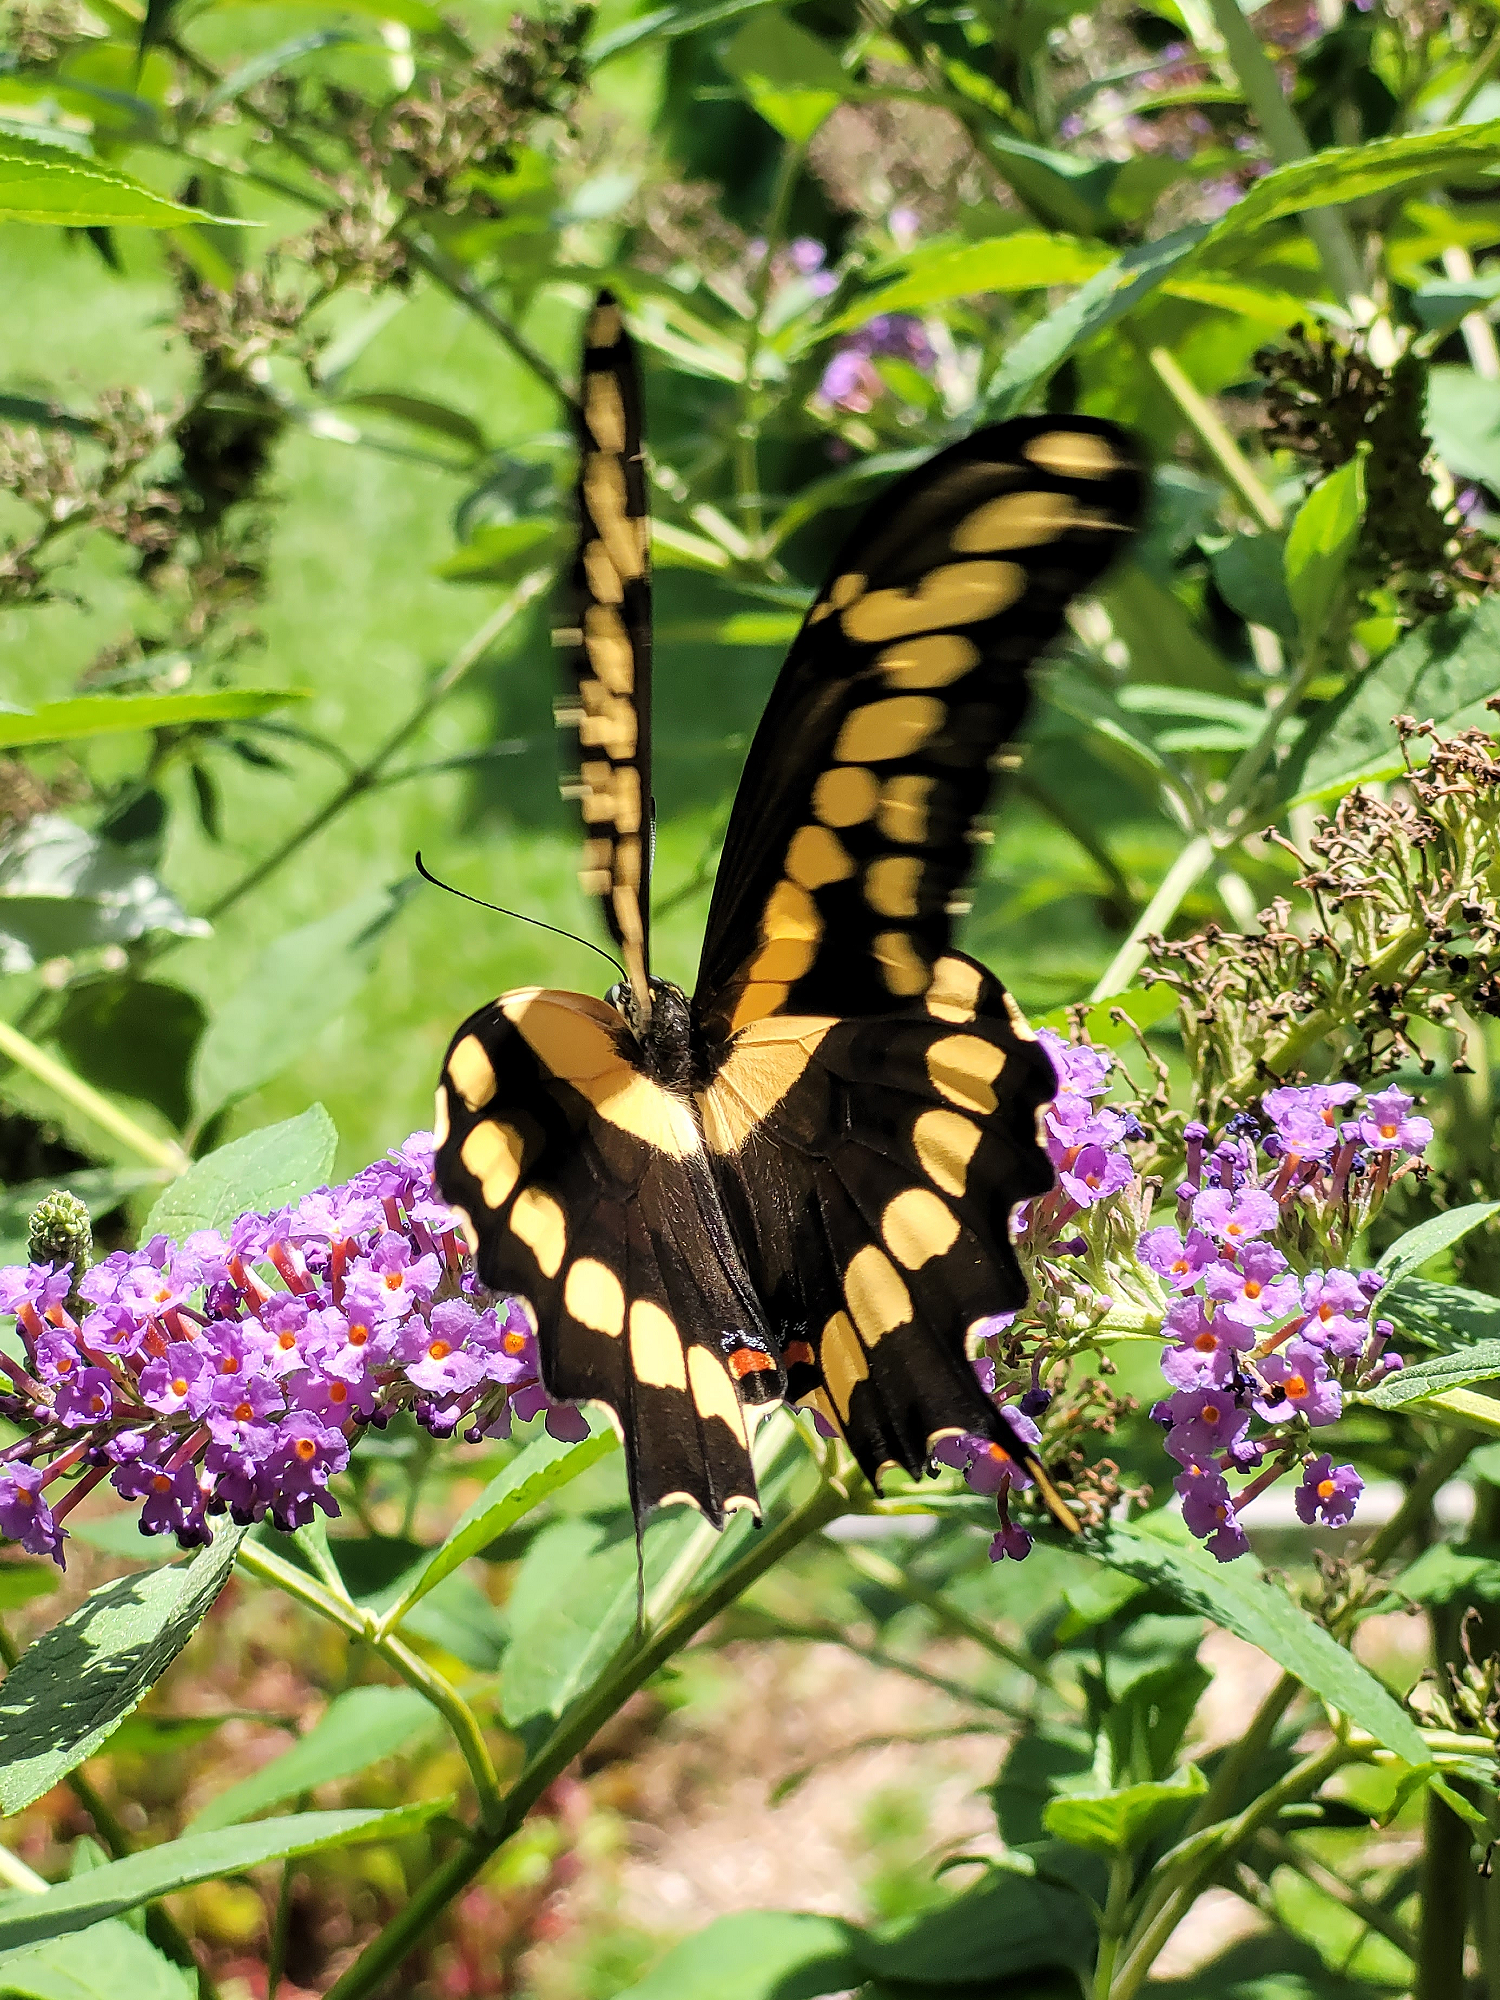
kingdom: Animalia
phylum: Arthropoda
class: Insecta
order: Lepidoptera
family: Papilionidae
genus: Papilio
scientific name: Papilio cresphontes
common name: Giant swallowtail
